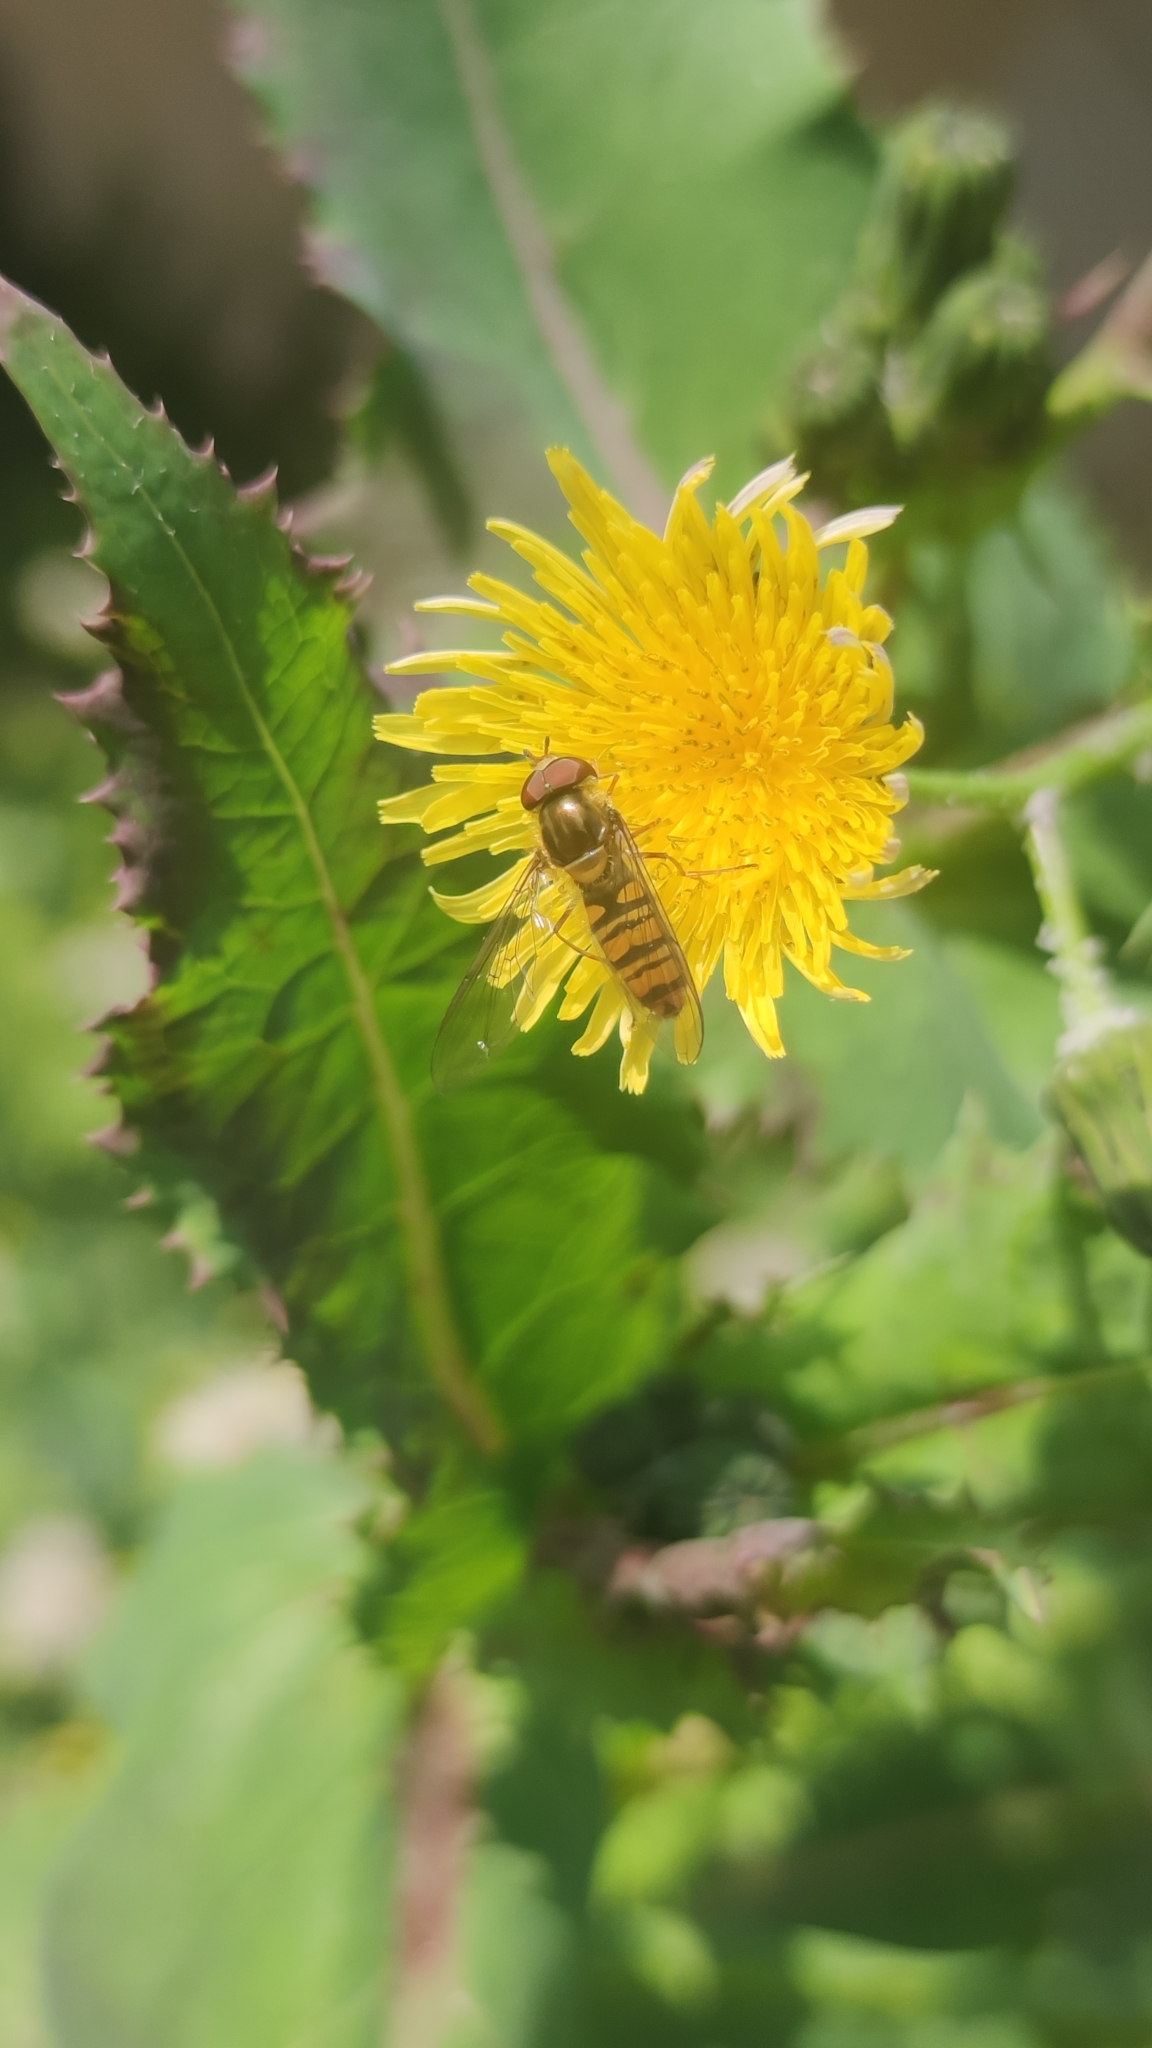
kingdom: Animalia
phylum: Arthropoda
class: Insecta
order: Diptera
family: Syrphidae
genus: Episyrphus
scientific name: Episyrphus balteatus
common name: Marmalade hoverfly
